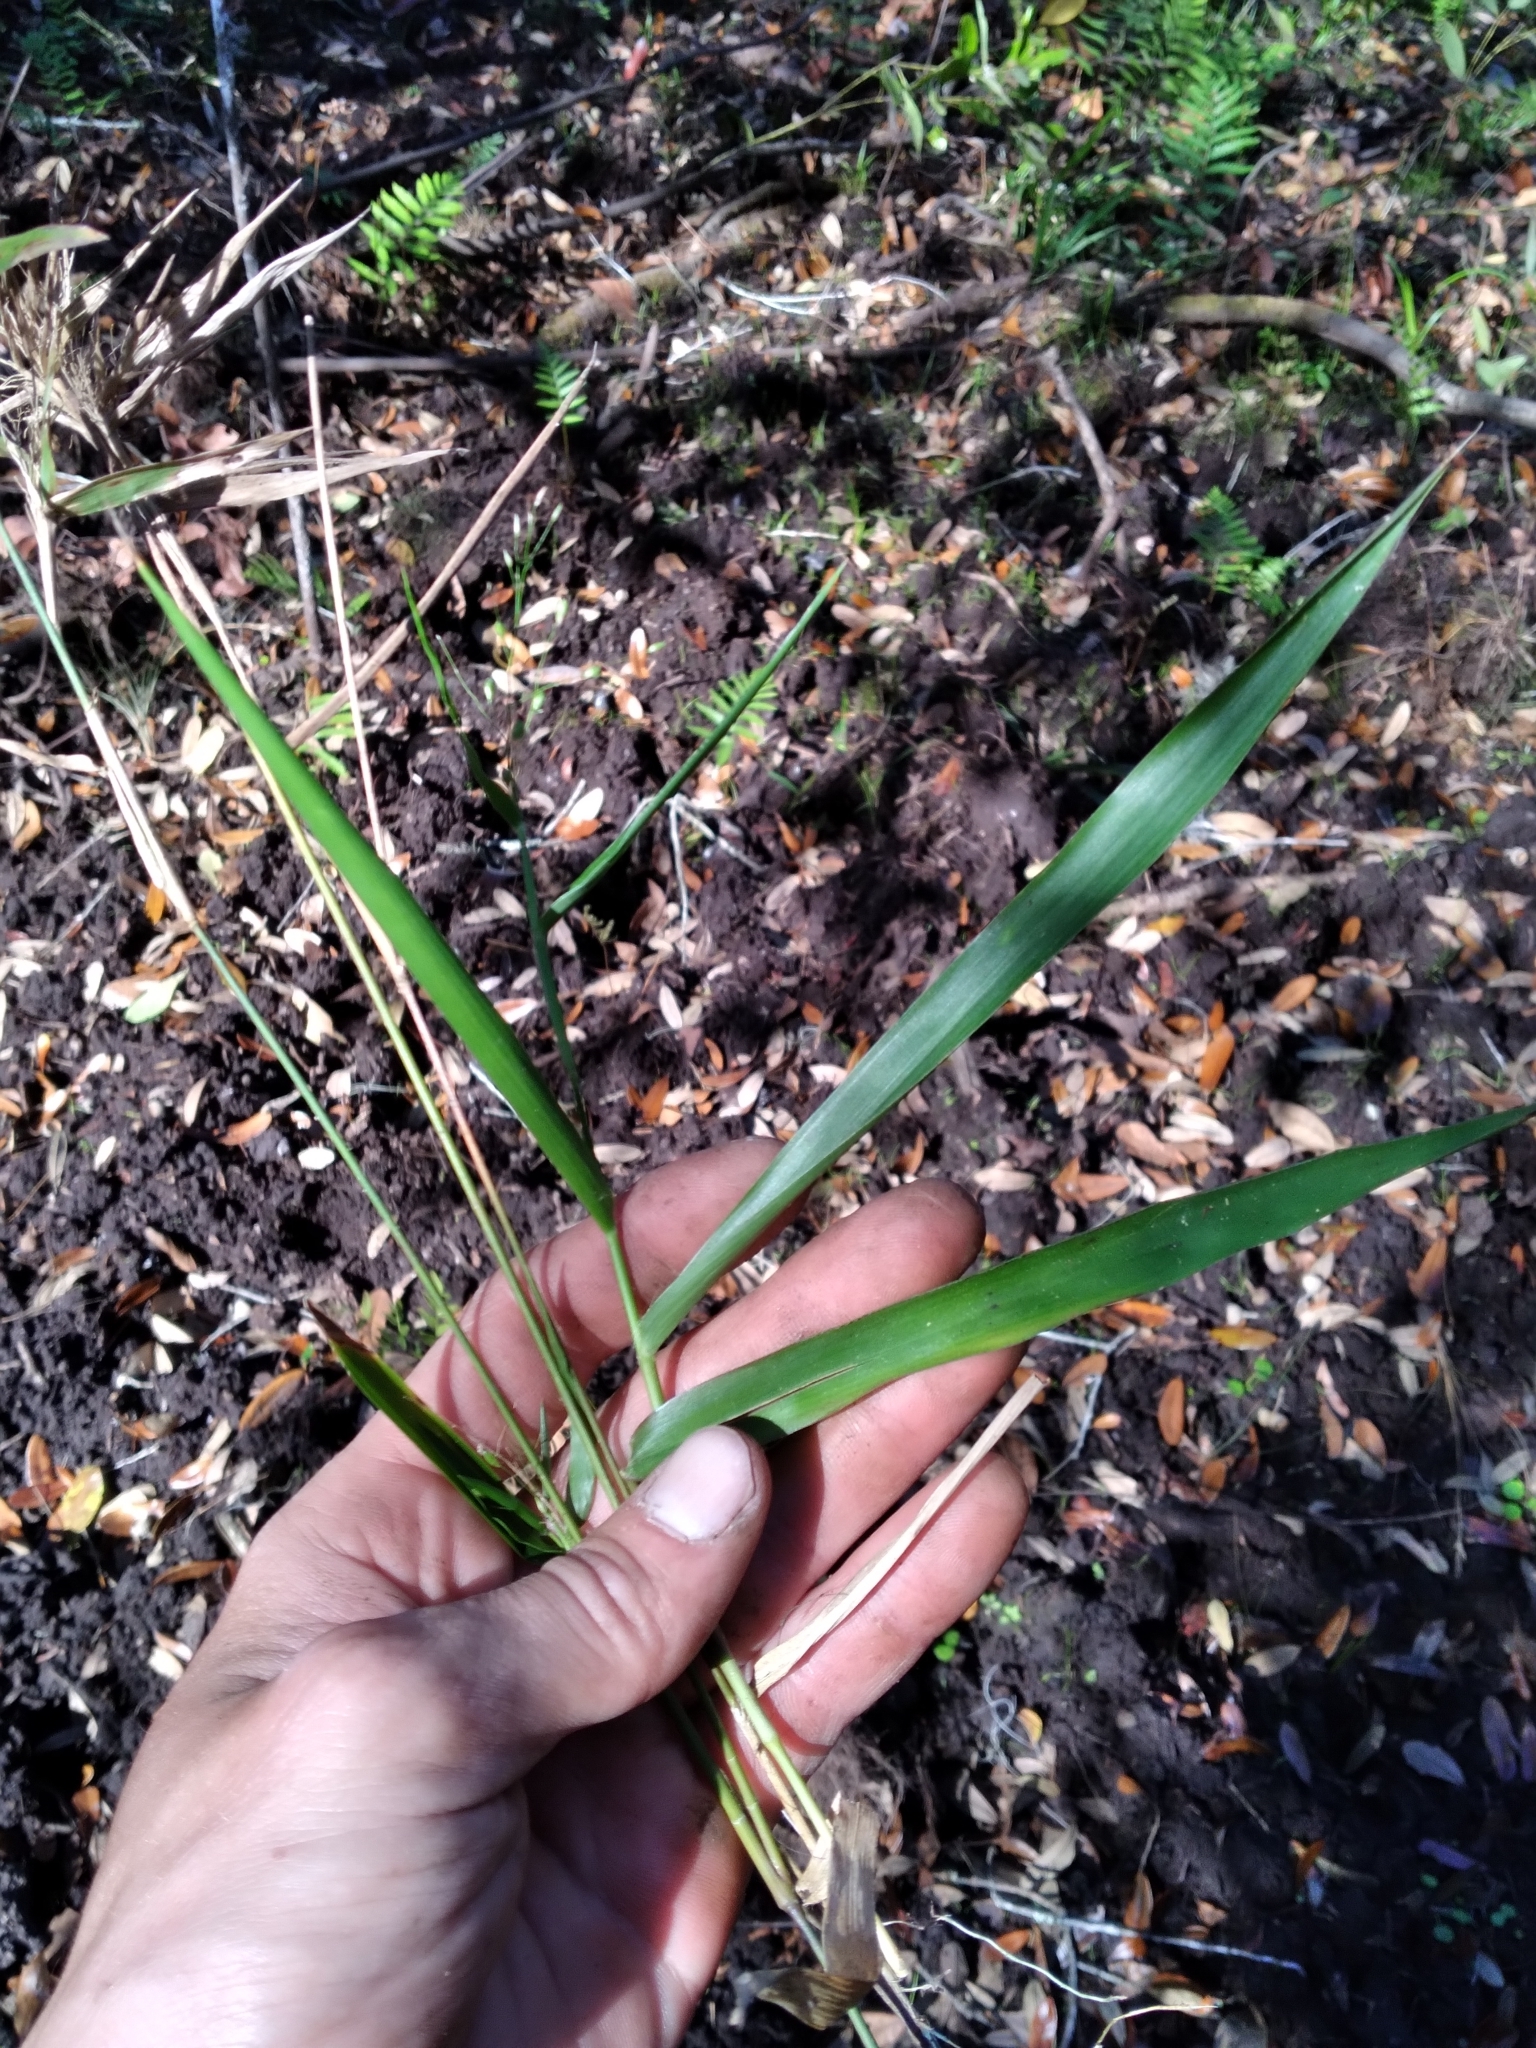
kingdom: Plantae
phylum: Tracheophyta
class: Liliopsida
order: Poales
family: Poaceae
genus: Dichanthelium
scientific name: Dichanthelium equilaterale
